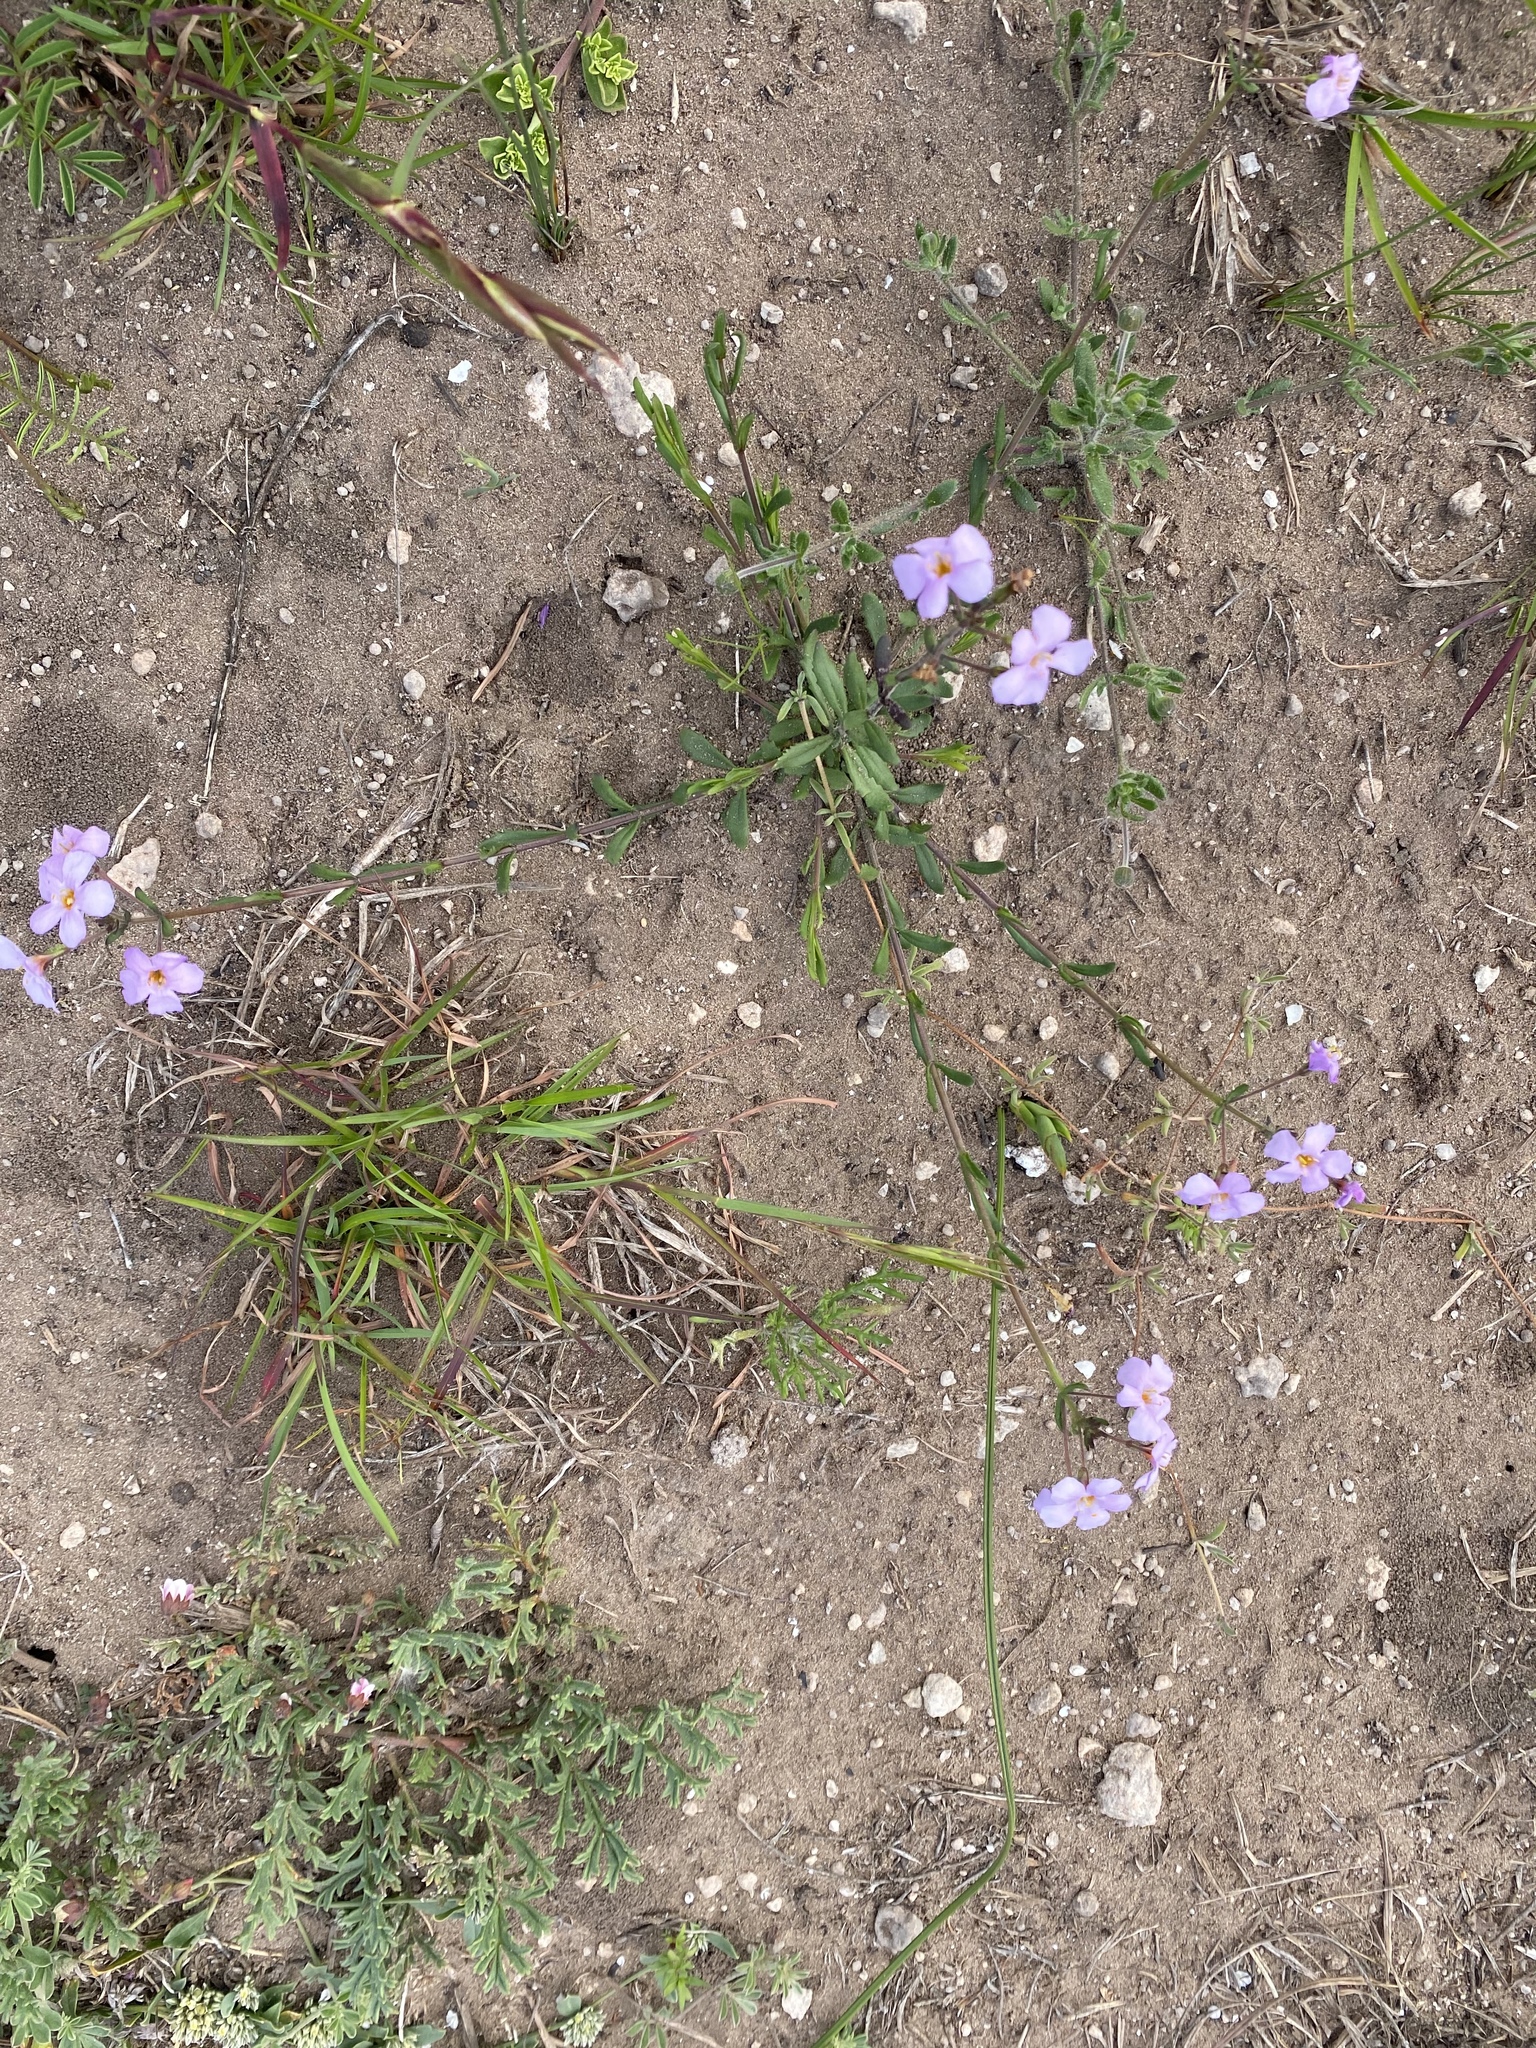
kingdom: Plantae
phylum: Tracheophyta
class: Magnoliopsida
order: Lamiales
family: Scrophulariaceae
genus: Chaenostoma
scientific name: Chaenostoma revolutum
